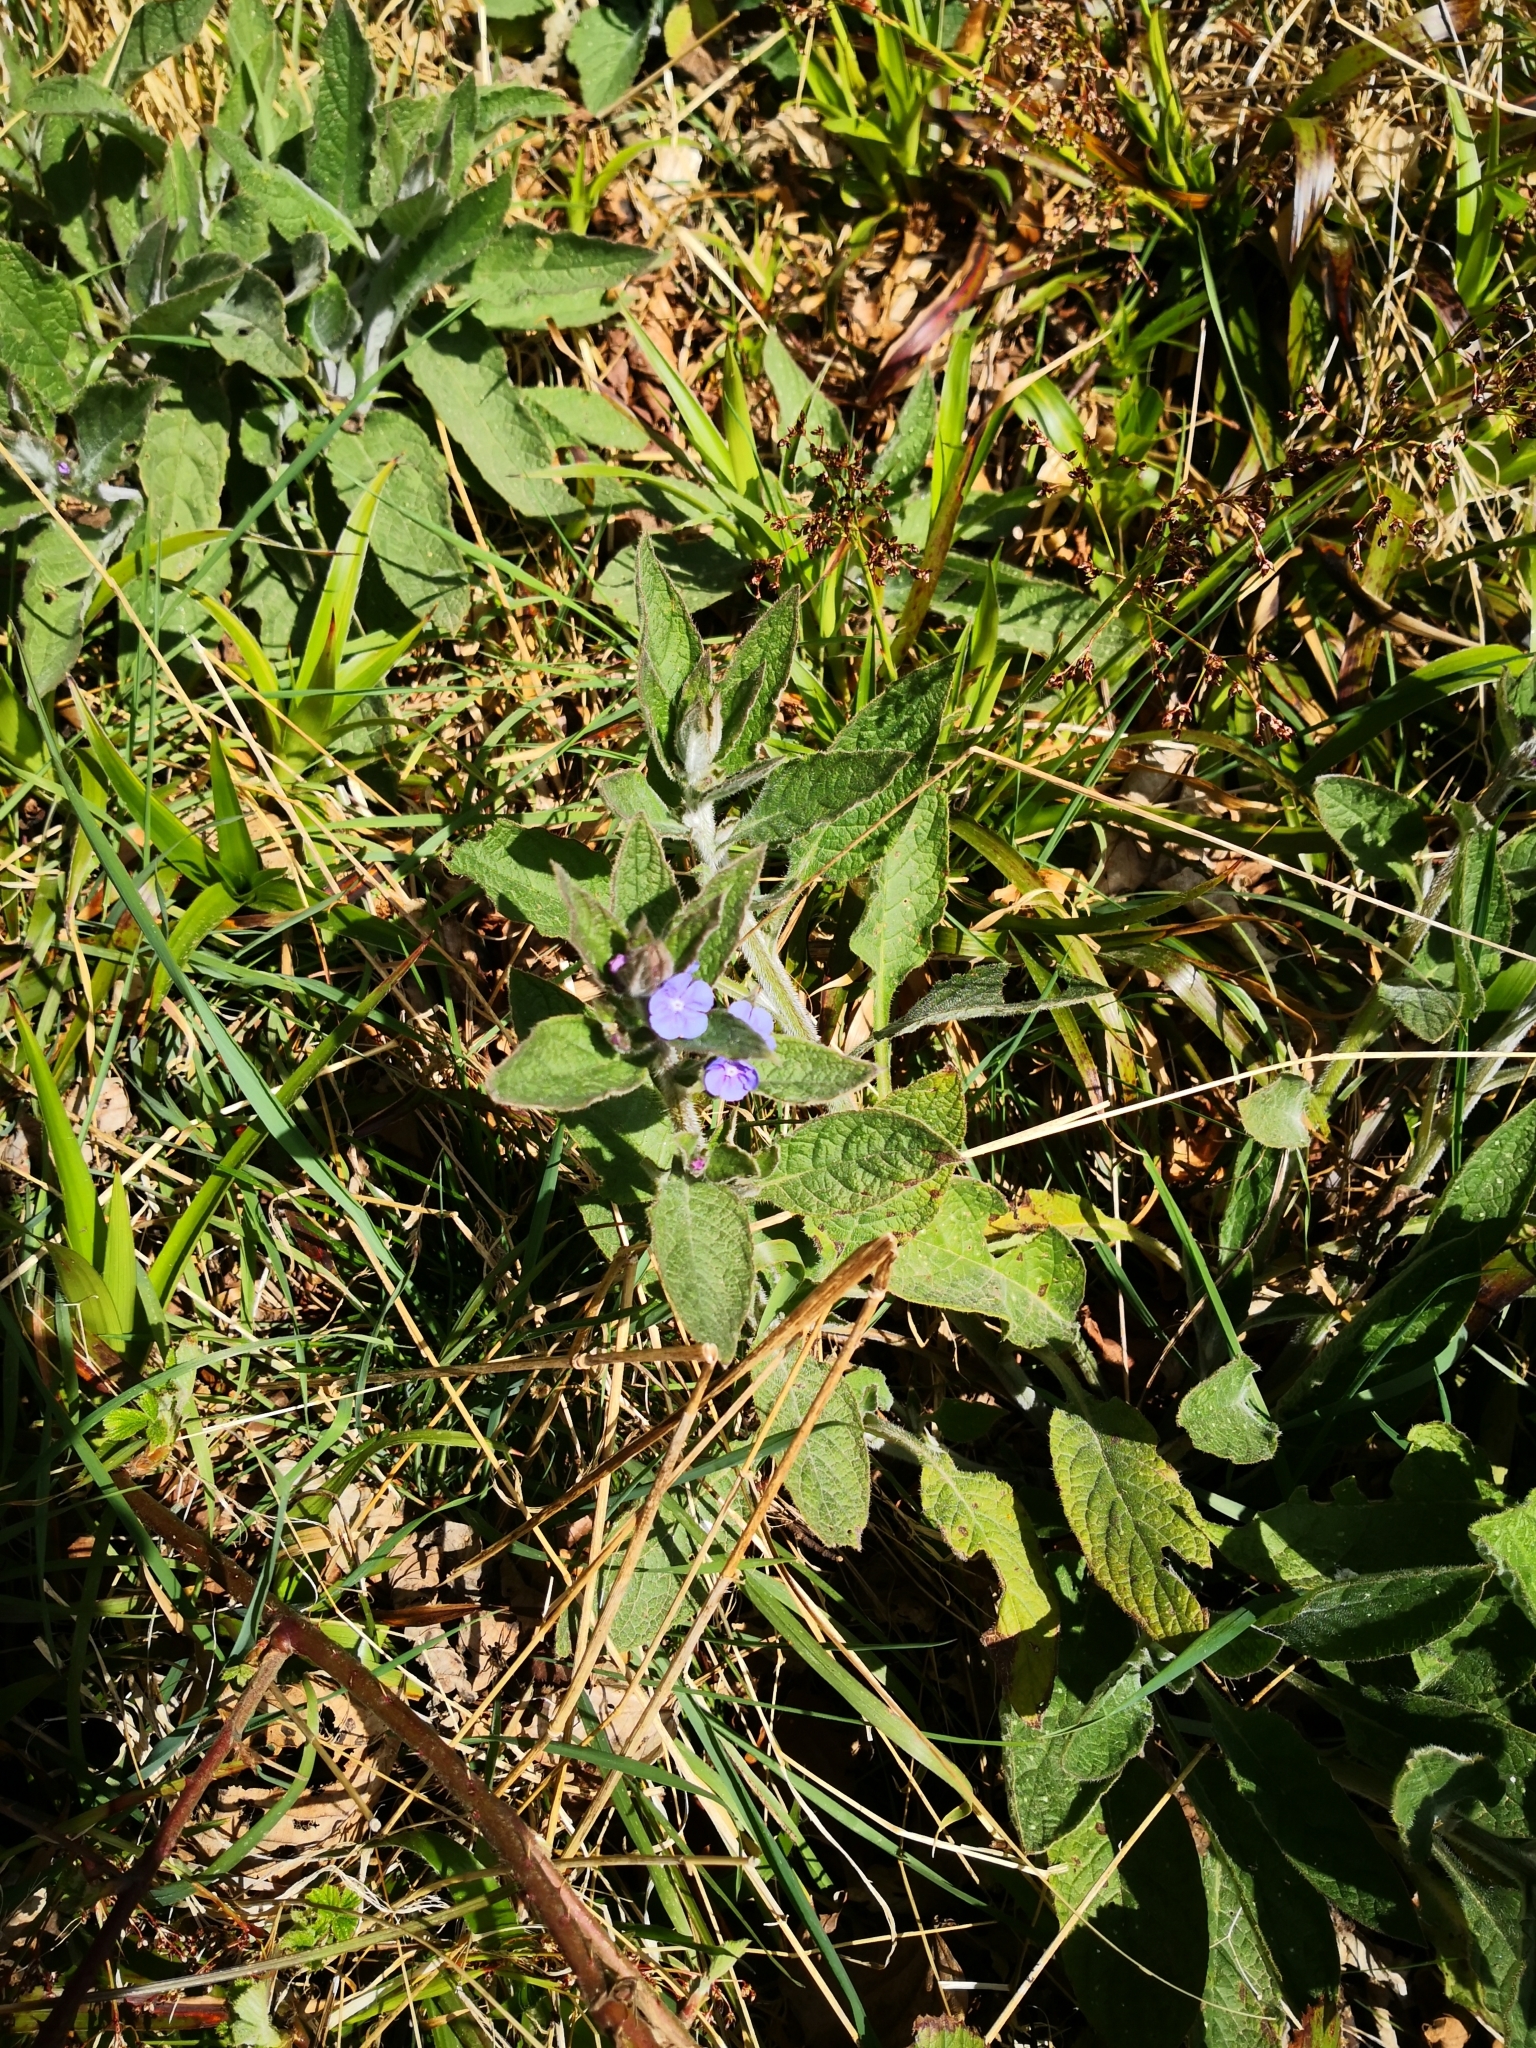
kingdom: Plantae
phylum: Tracheophyta
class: Magnoliopsida
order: Boraginales
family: Boraginaceae
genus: Pentaglottis
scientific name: Pentaglottis sempervirens
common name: Green alkanet
